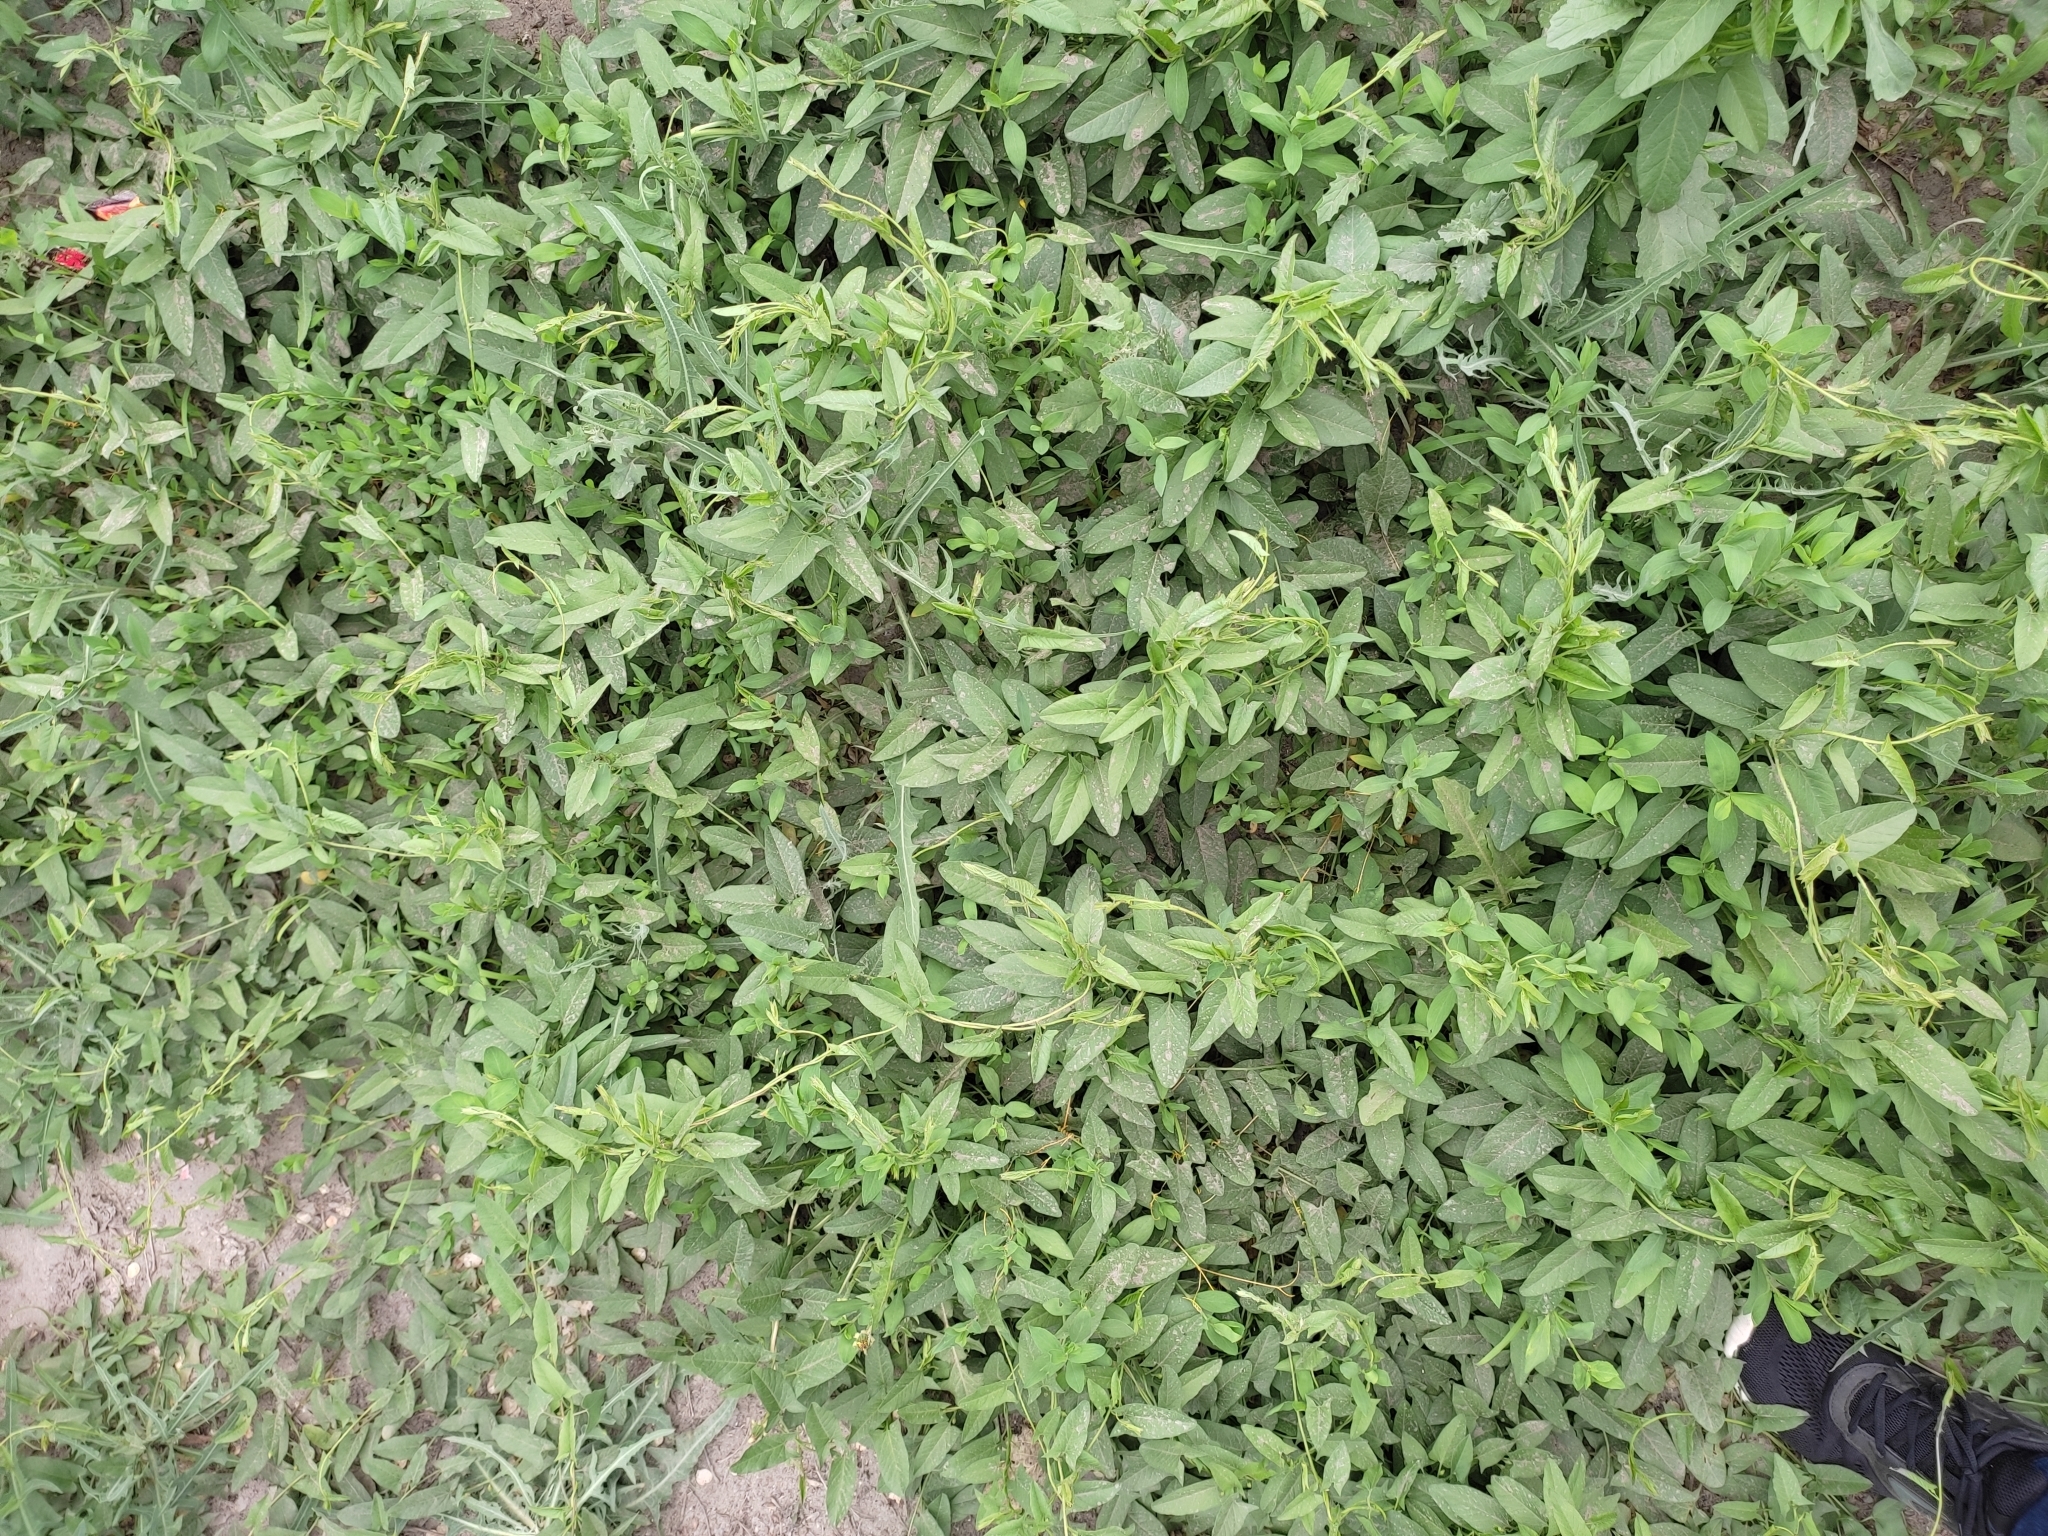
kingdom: Plantae
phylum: Tracheophyta
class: Magnoliopsida
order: Solanales
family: Convolvulaceae
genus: Convolvulus
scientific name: Convolvulus arvensis
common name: Field bindweed
